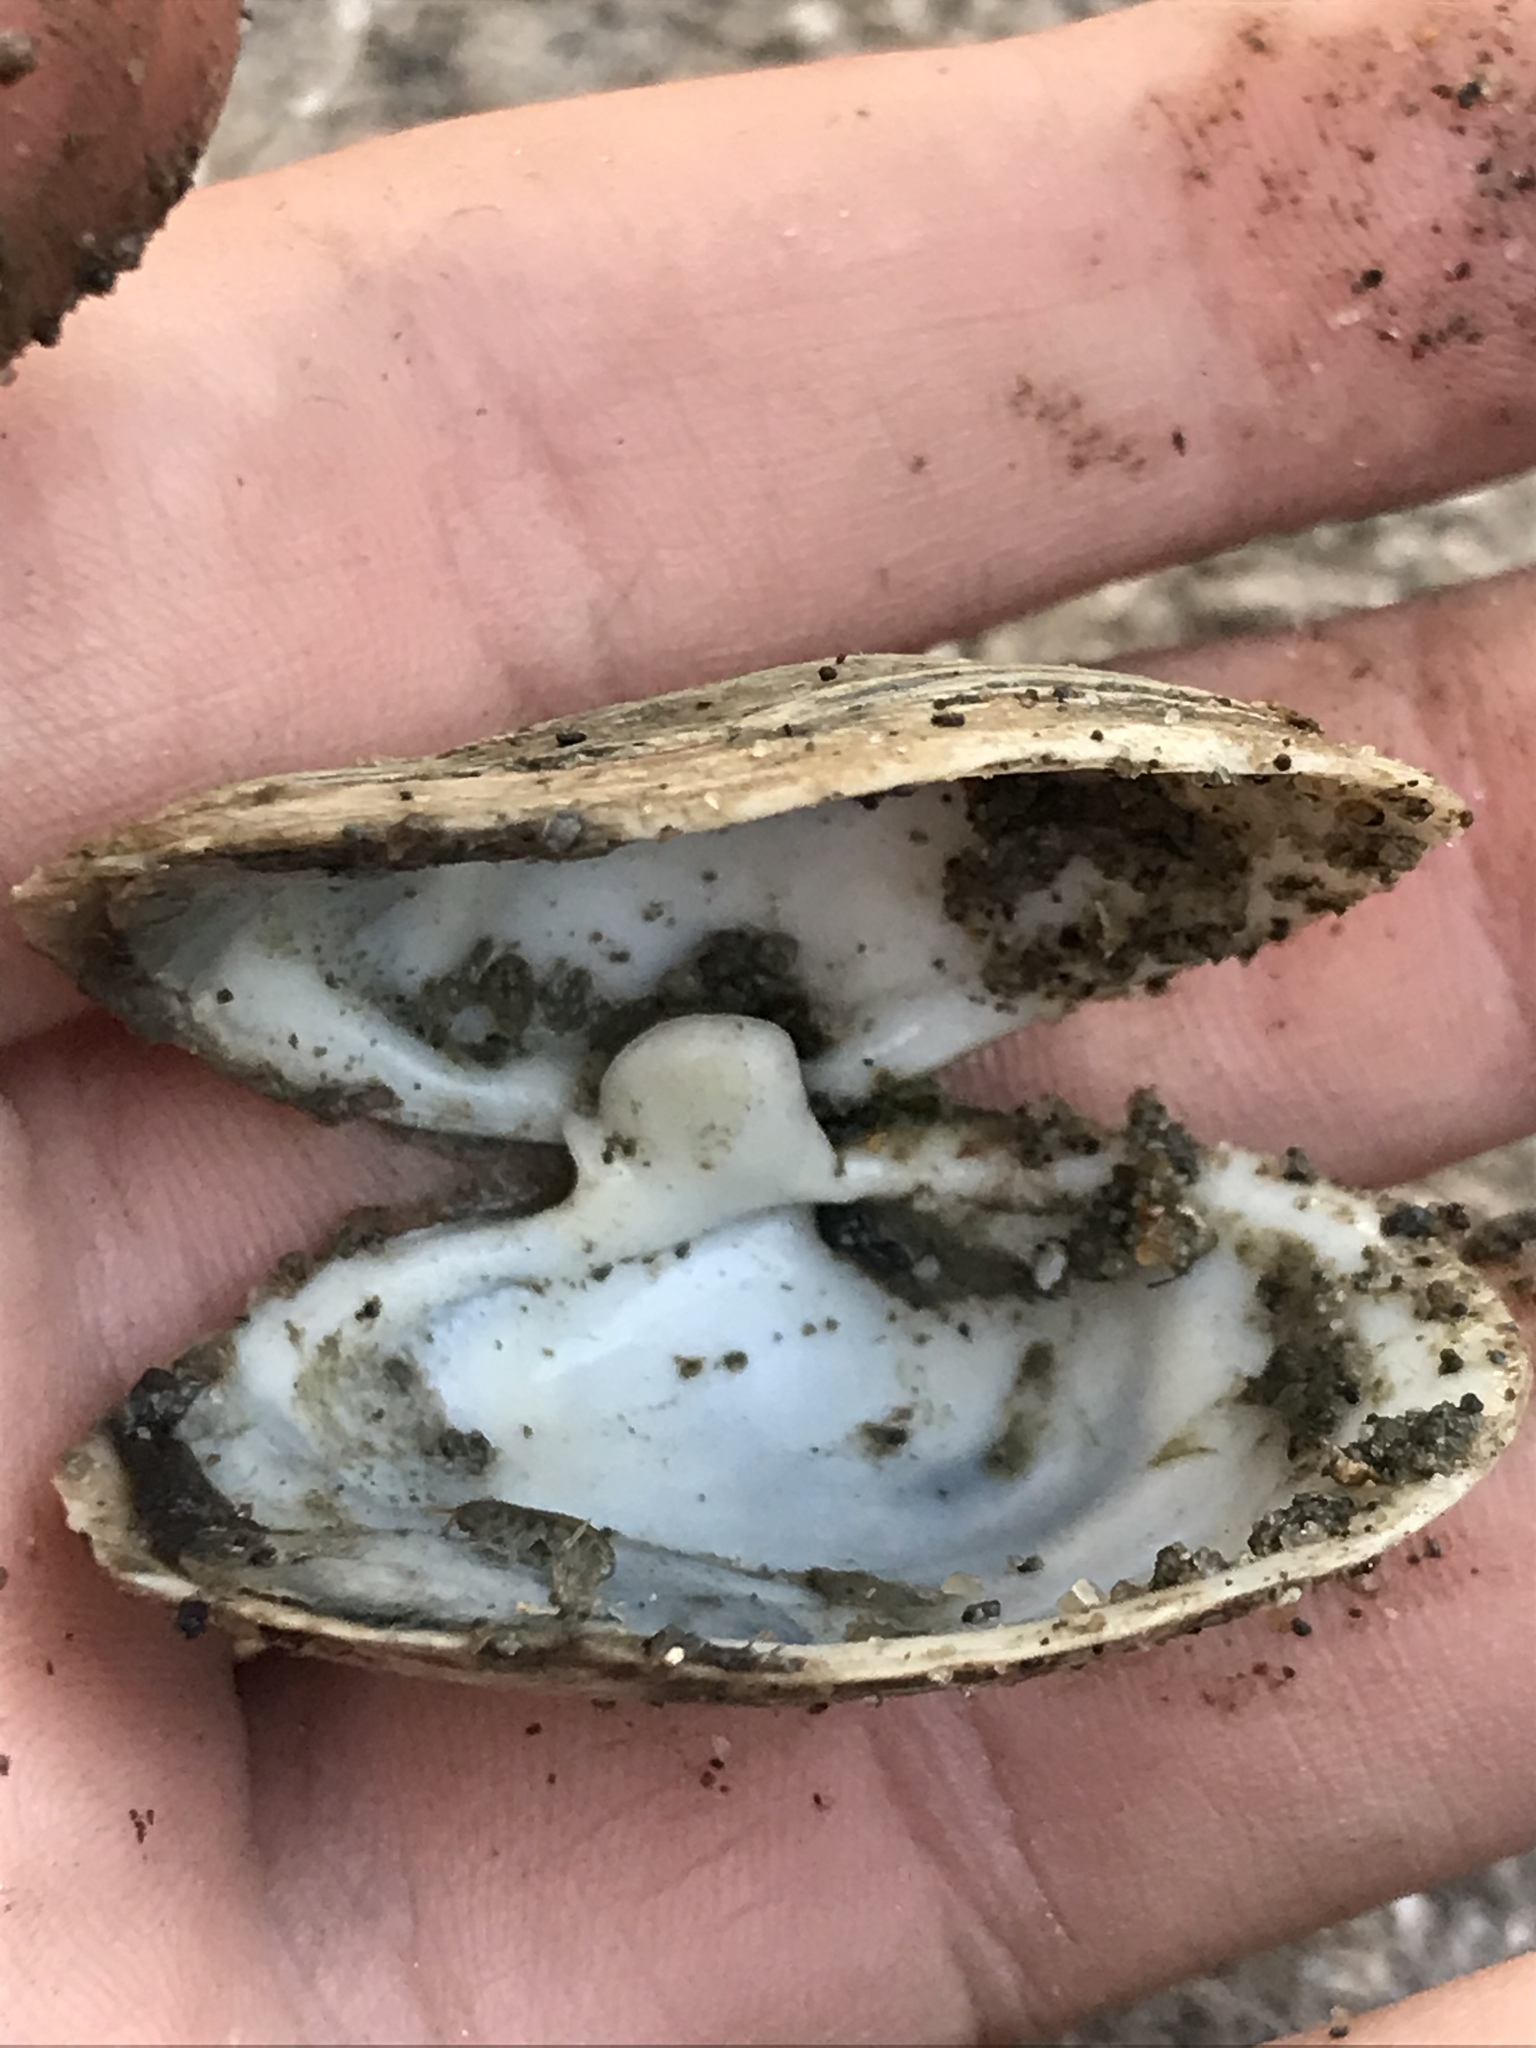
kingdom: Animalia
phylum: Mollusca
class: Bivalvia
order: Myida
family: Myidae
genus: Mya
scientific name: Mya arenaria
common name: Soft-shelled clam
